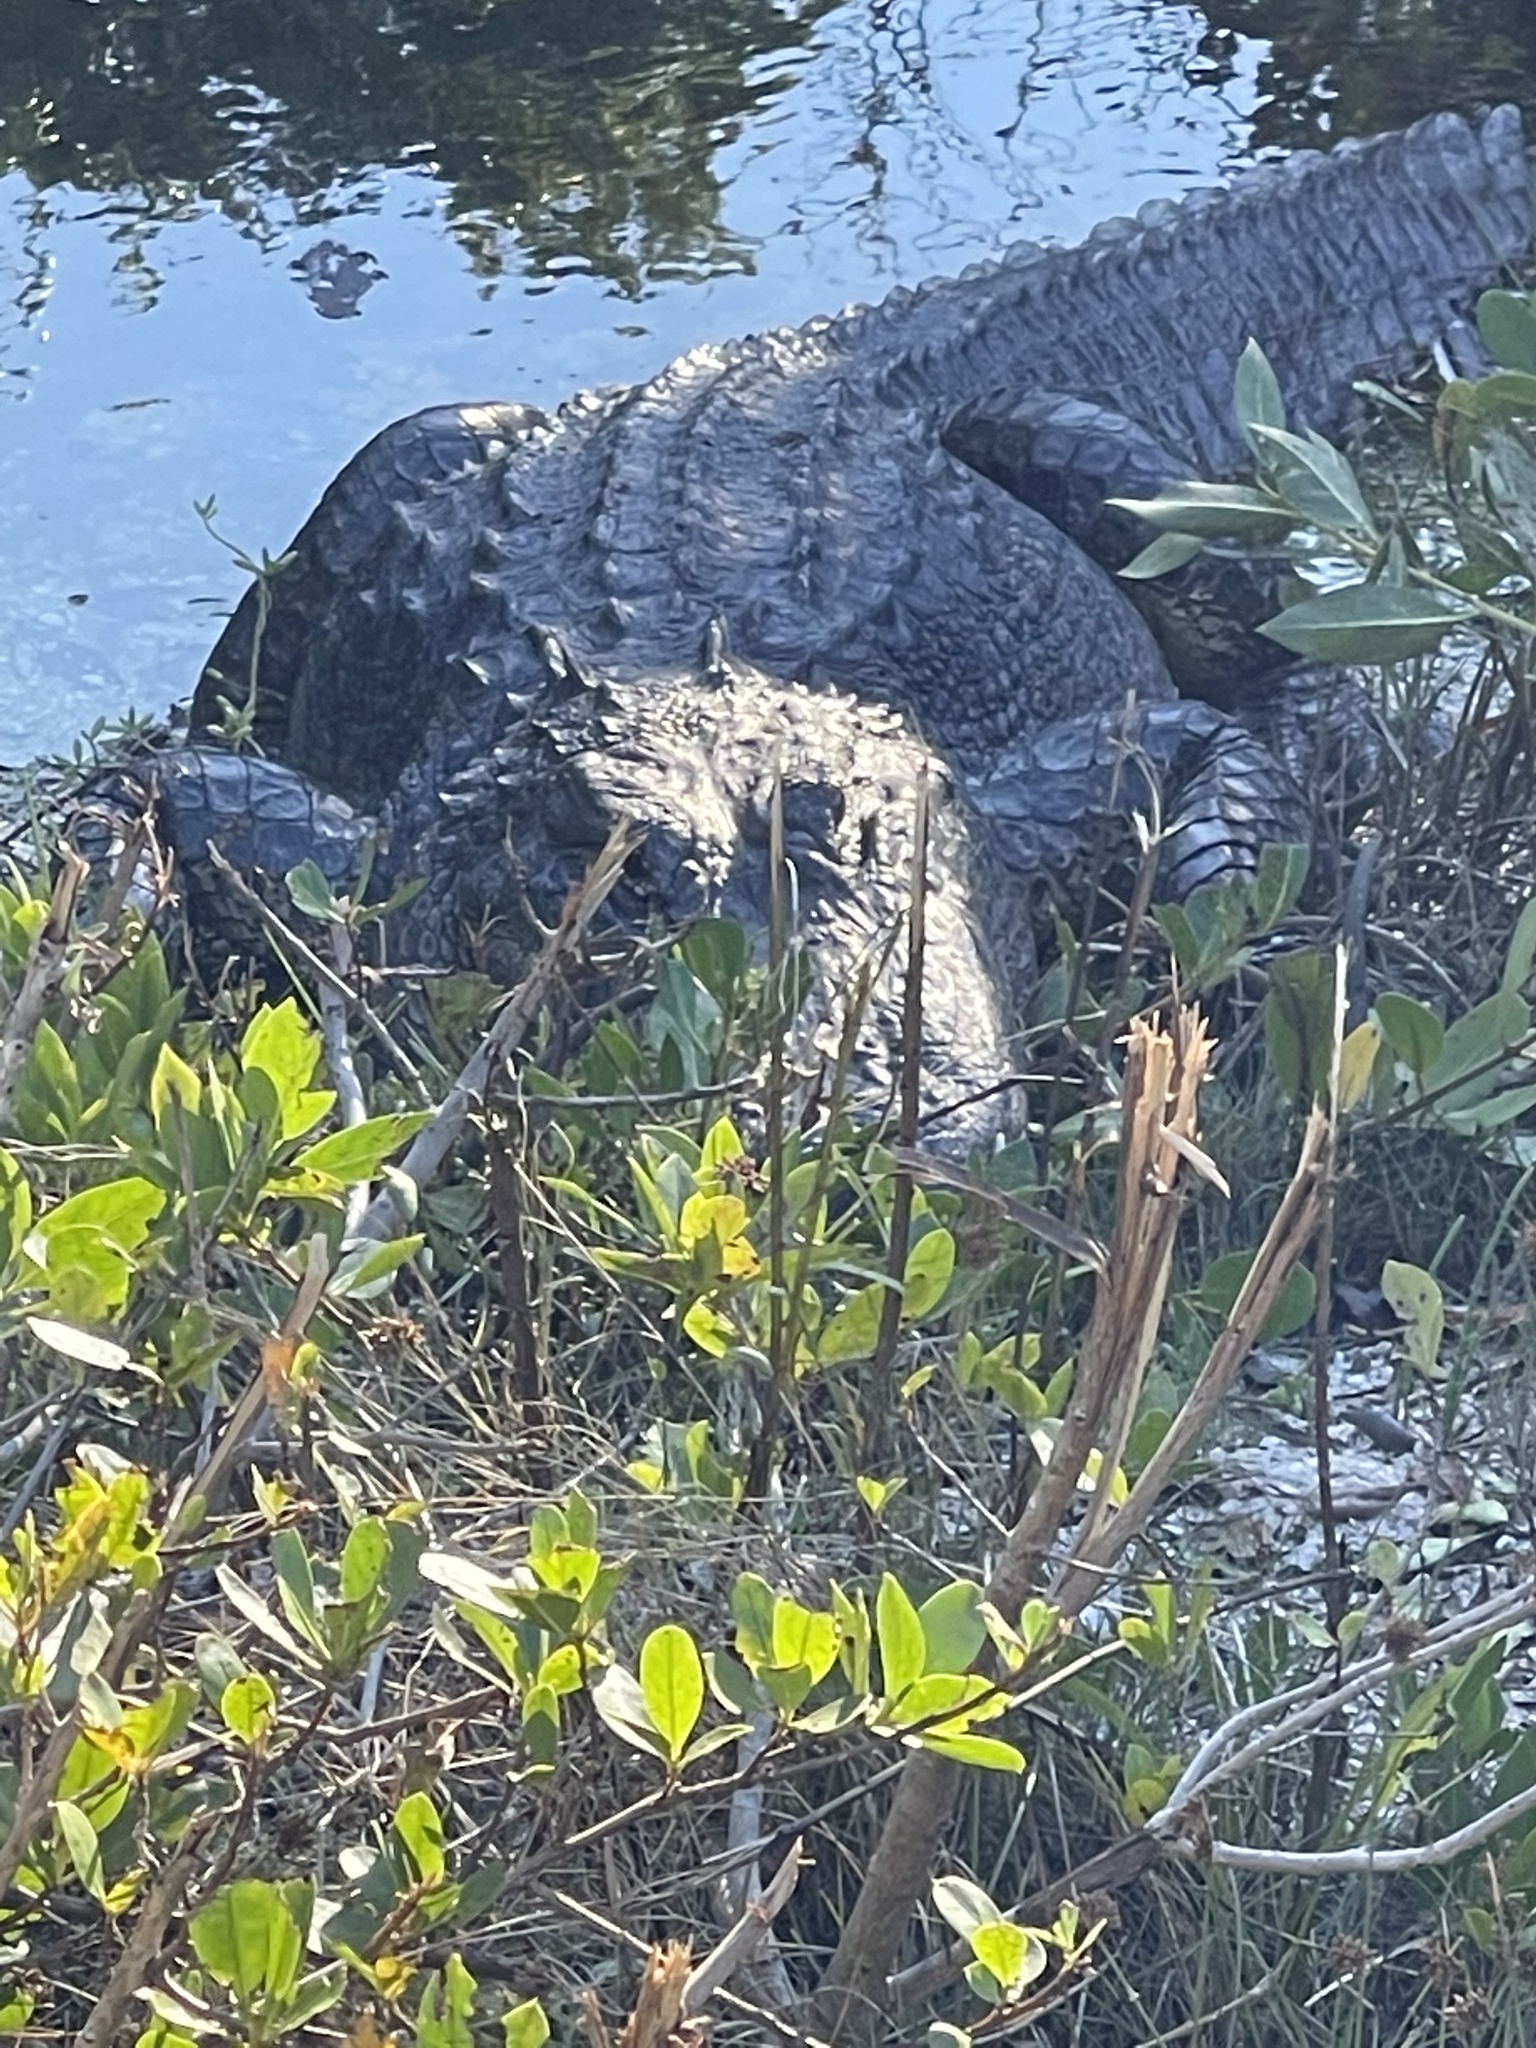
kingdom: Animalia
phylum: Chordata
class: Crocodylia
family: Alligatoridae
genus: Alligator
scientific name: Alligator mississippiensis
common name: American alligator
